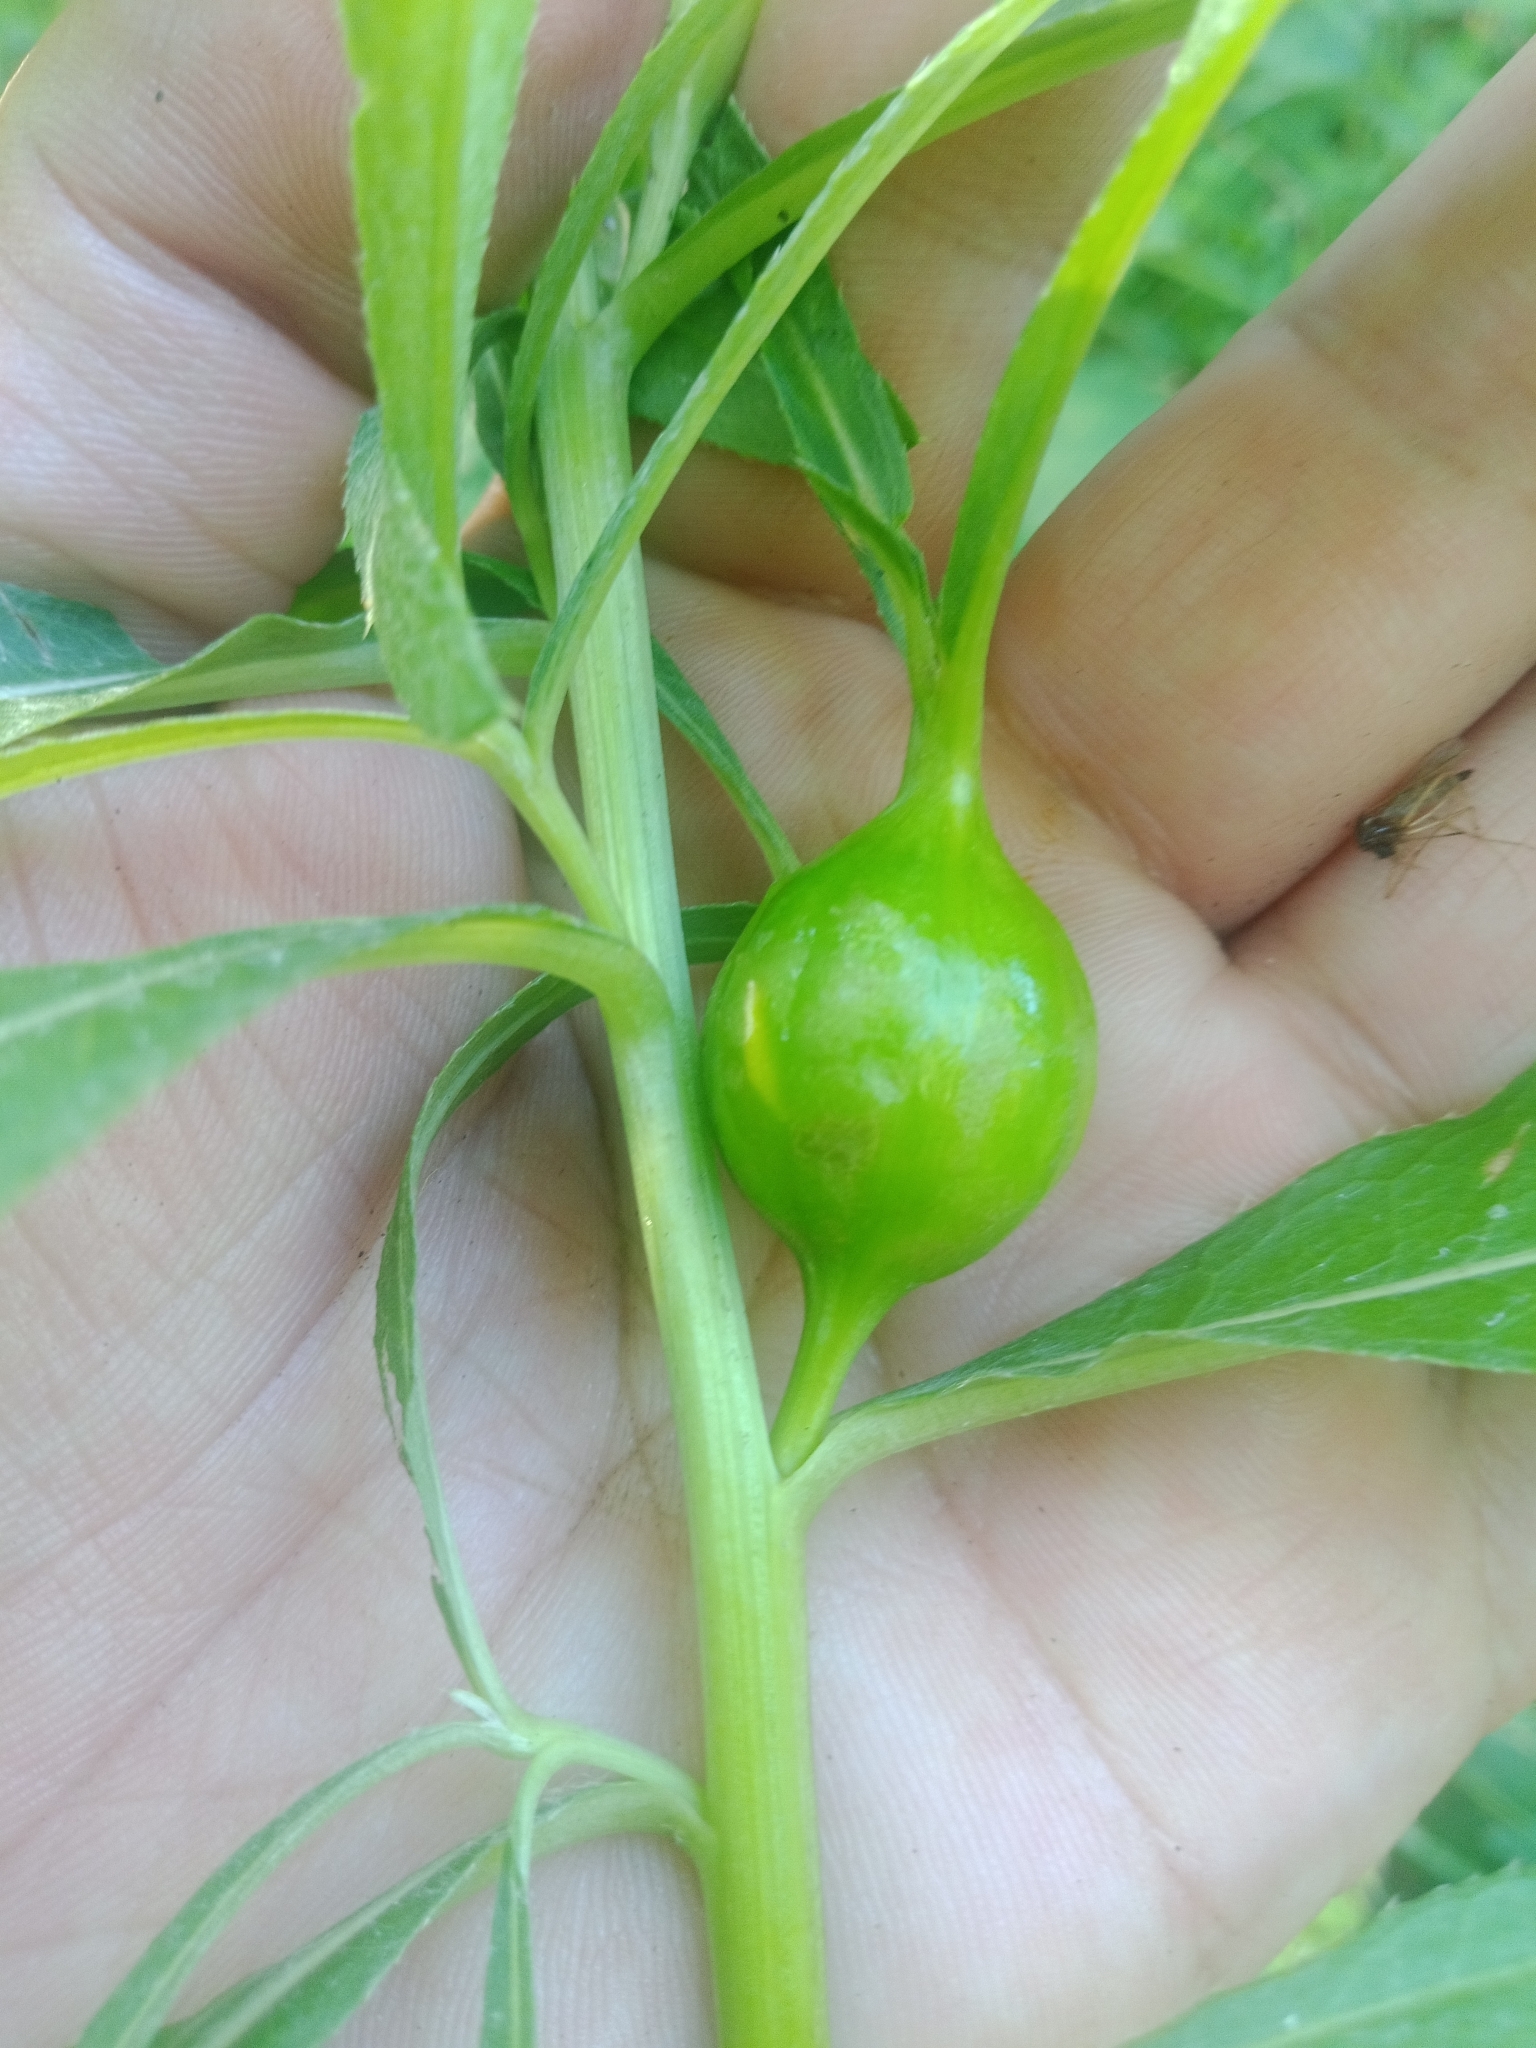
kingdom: Animalia
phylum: Arthropoda
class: Insecta
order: Diptera
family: Tephritidae
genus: Urophora
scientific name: Urophora cardui
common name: Fruit fly
